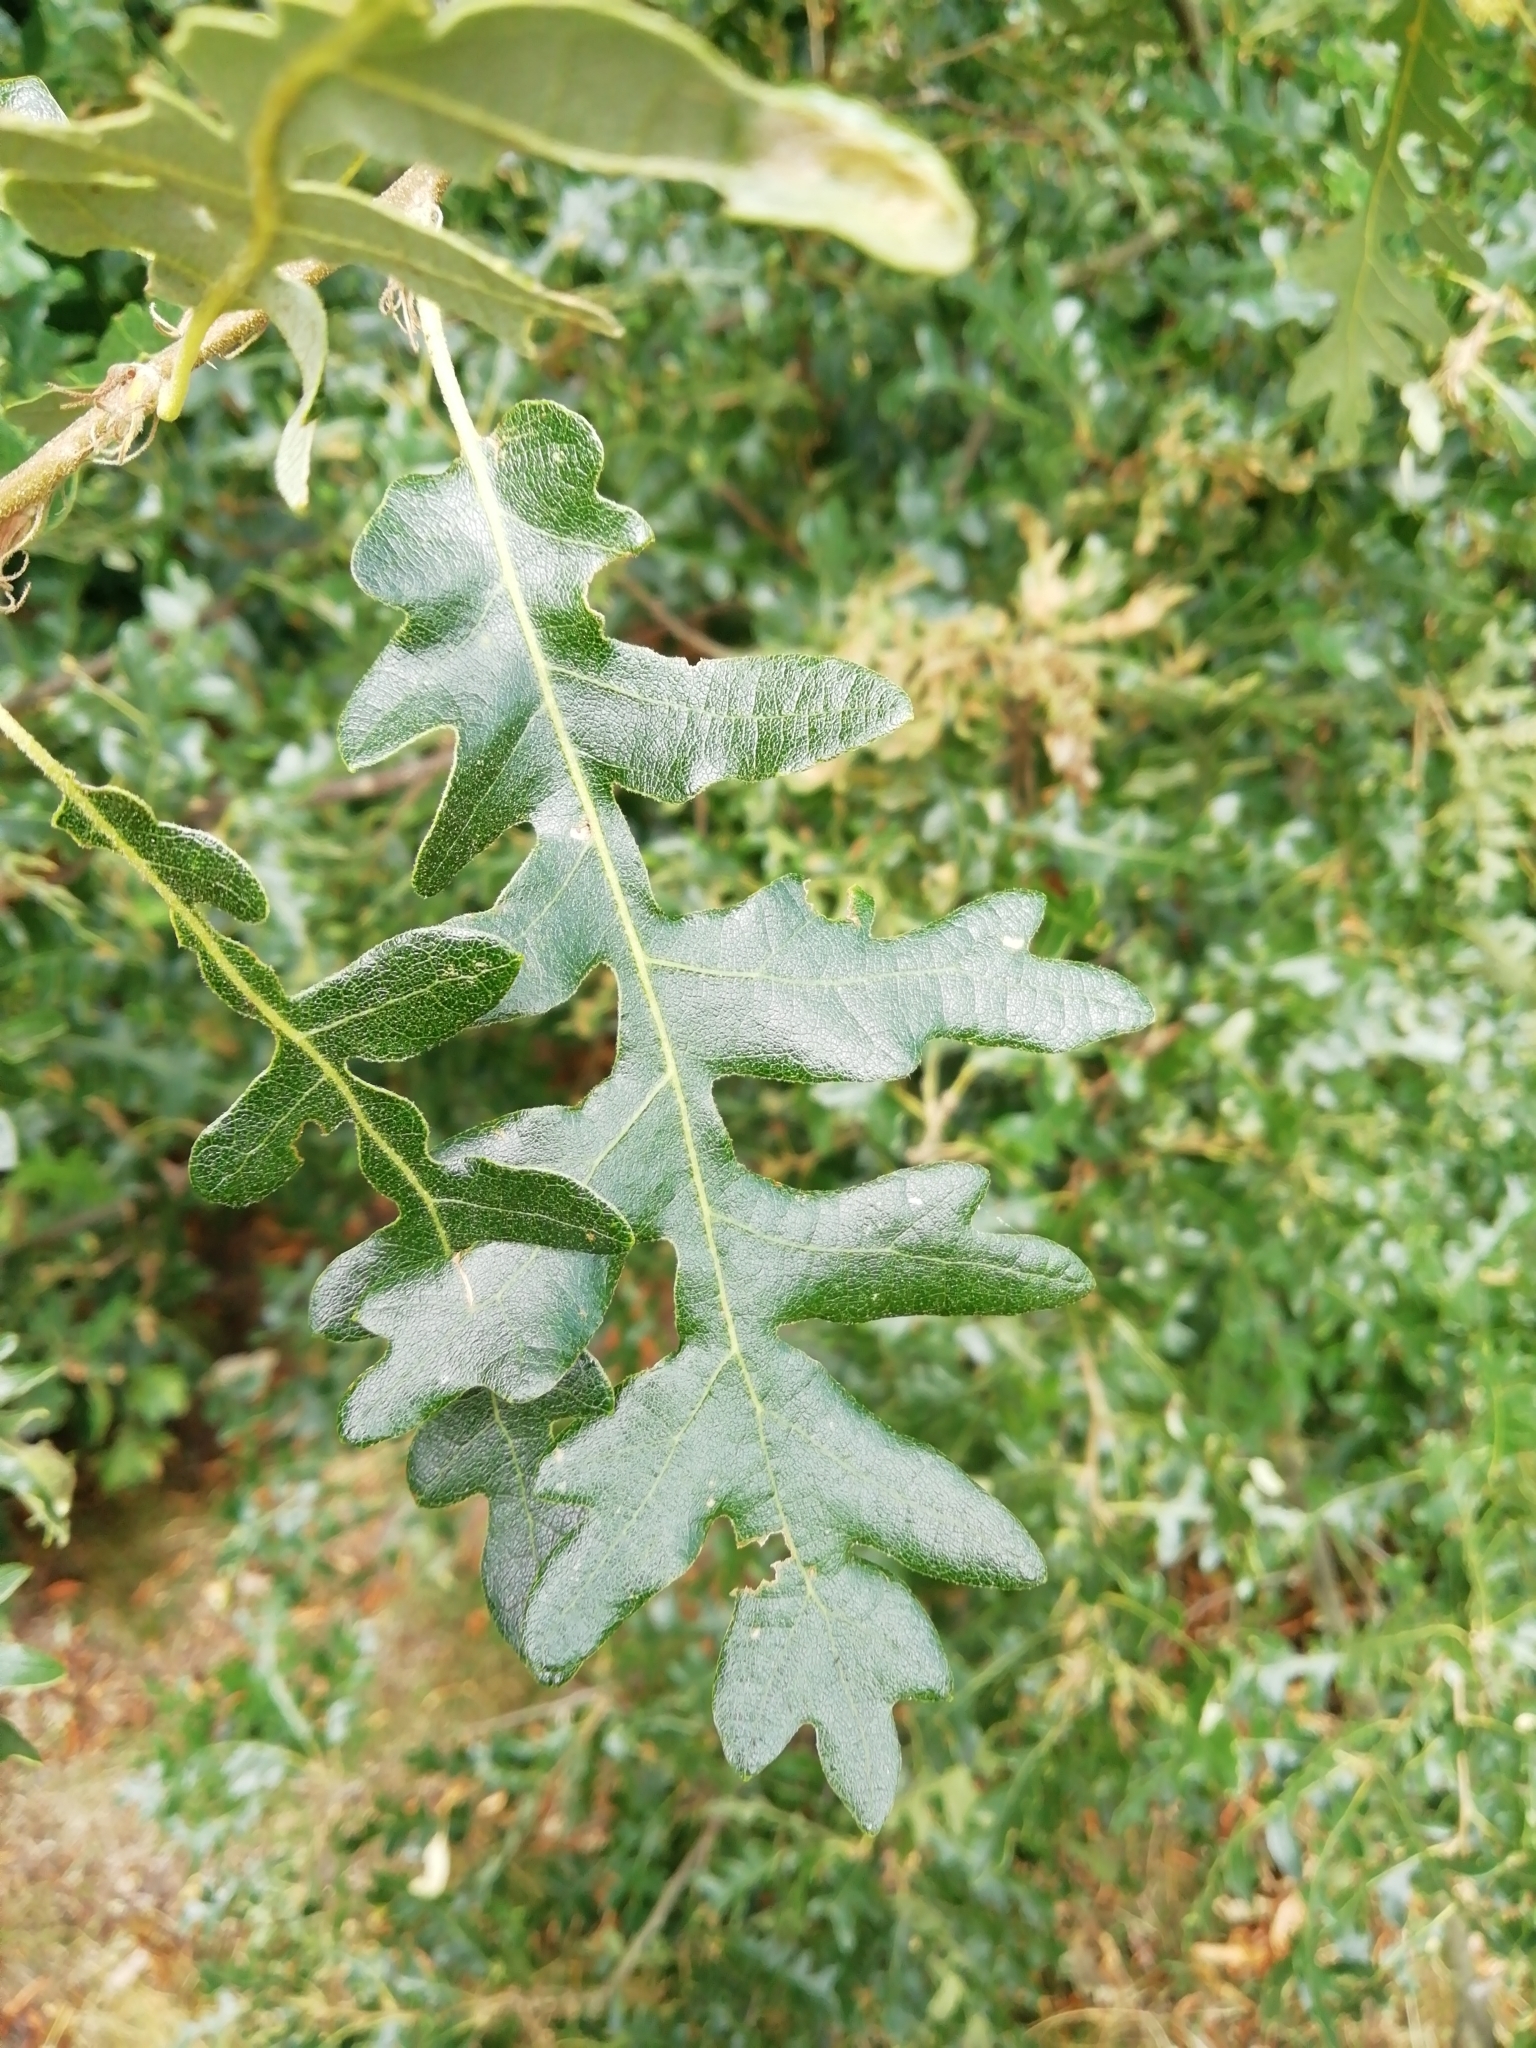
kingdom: Plantae
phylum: Tracheophyta
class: Magnoliopsida
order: Fagales
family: Fagaceae
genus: Quercus
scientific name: Quercus cerris
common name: Turkey oak
